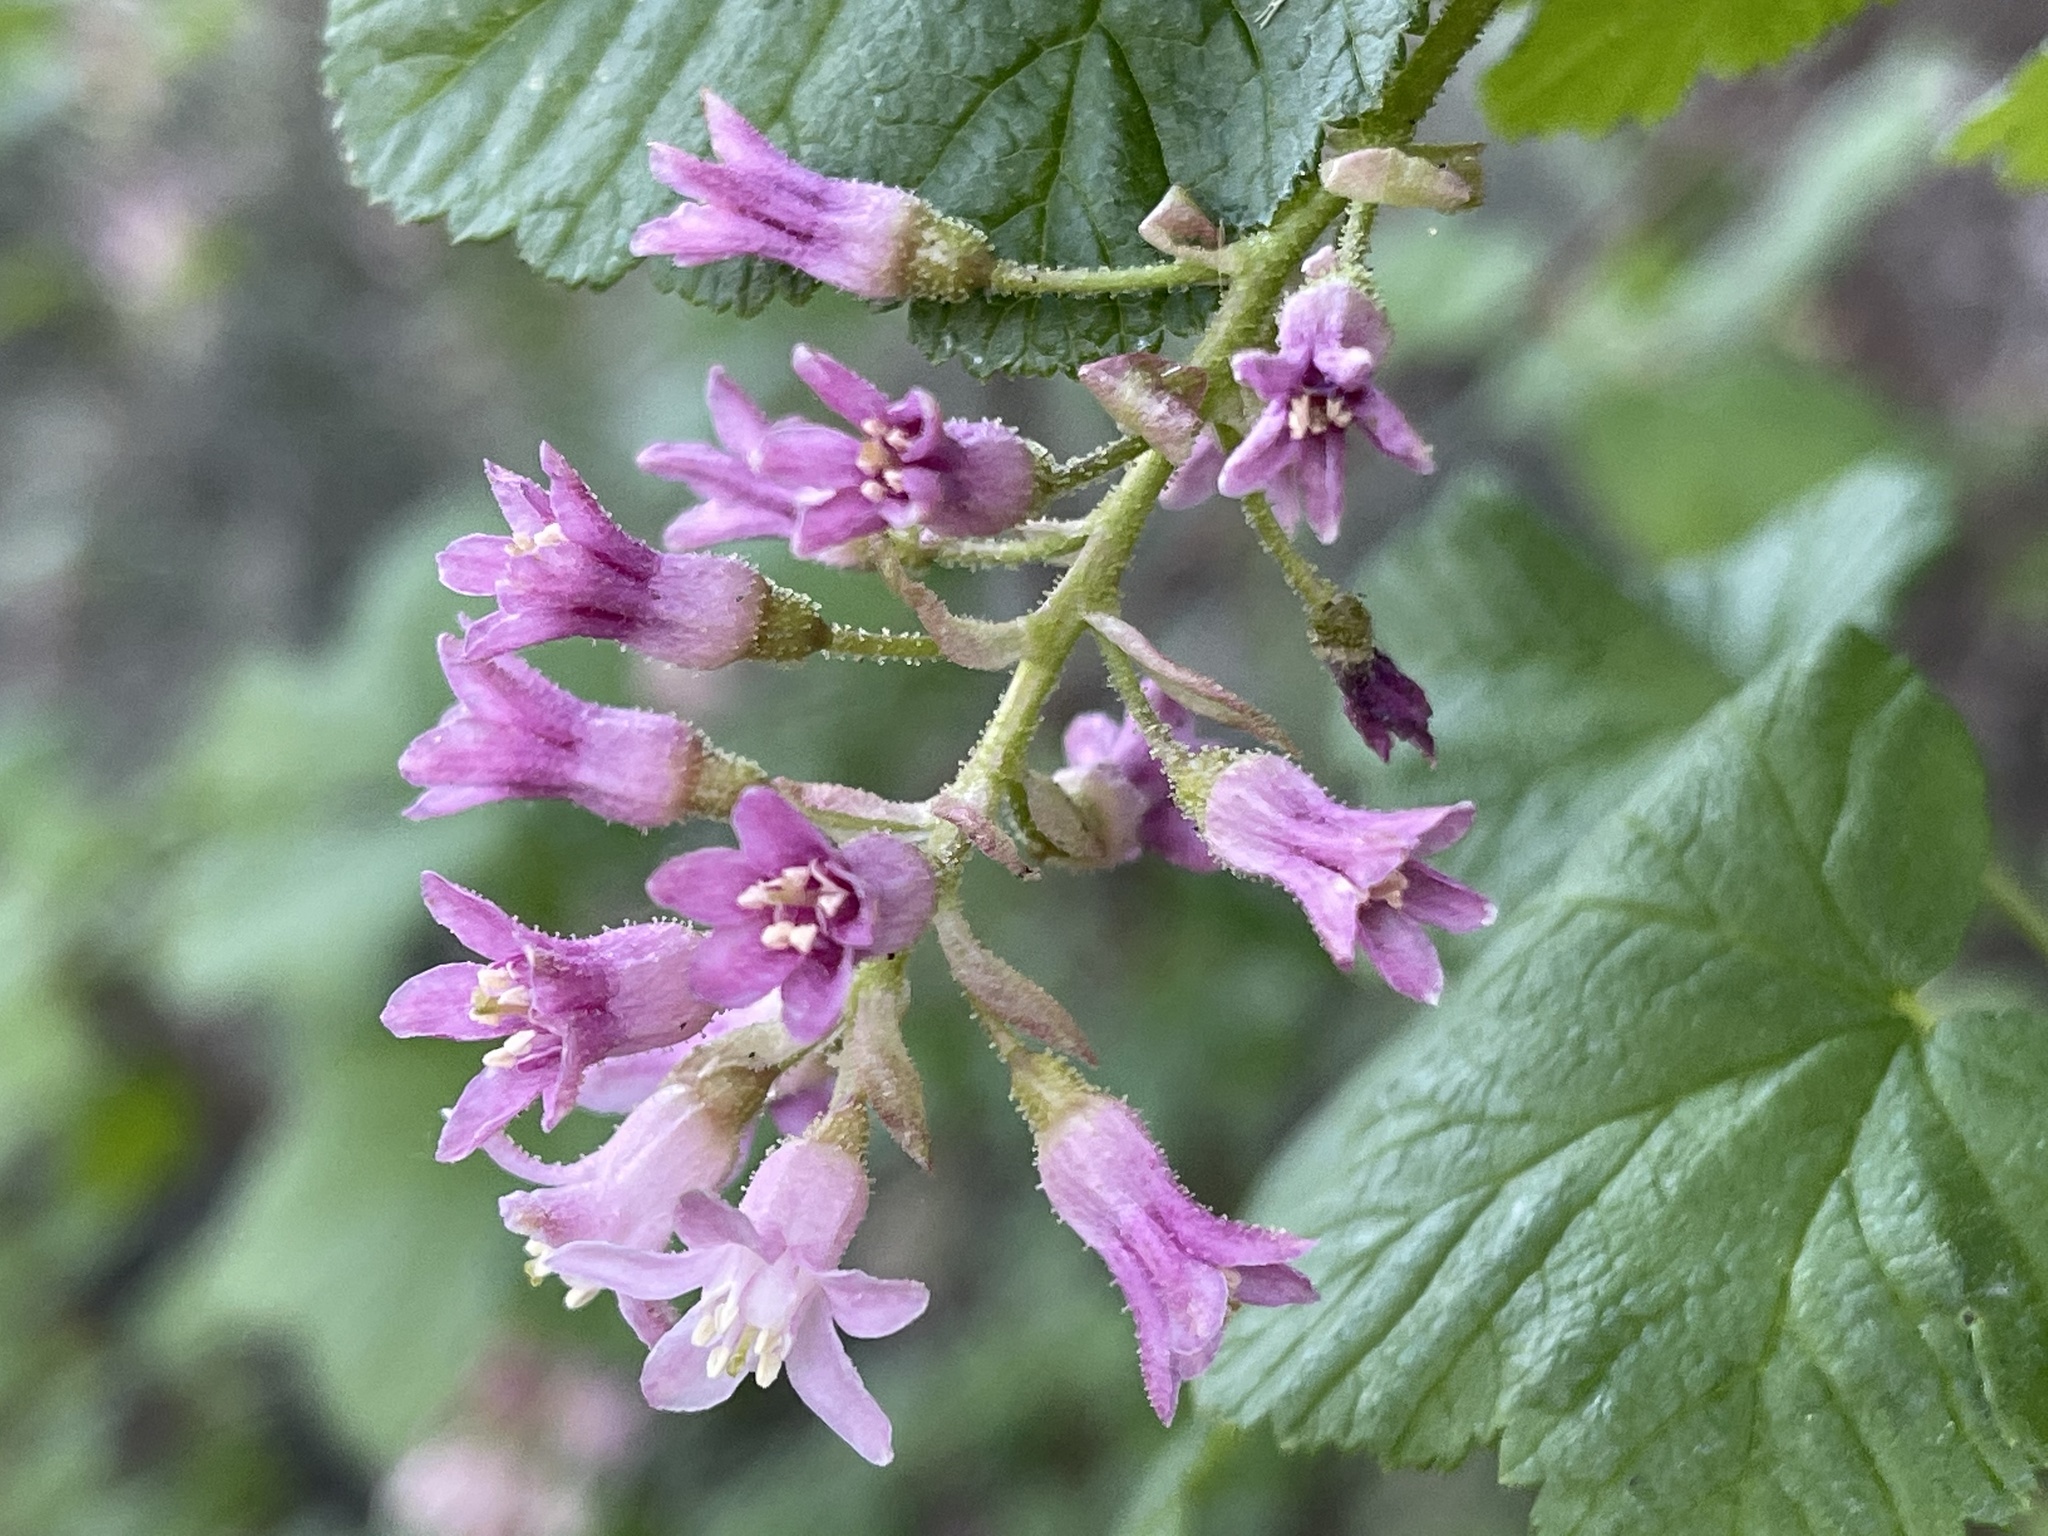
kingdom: Plantae
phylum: Tracheophyta
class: Magnoliopsida
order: Saxifragales
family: Grossulariaceae
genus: Ribes
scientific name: Ribes sanguineum
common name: Flowering currant
